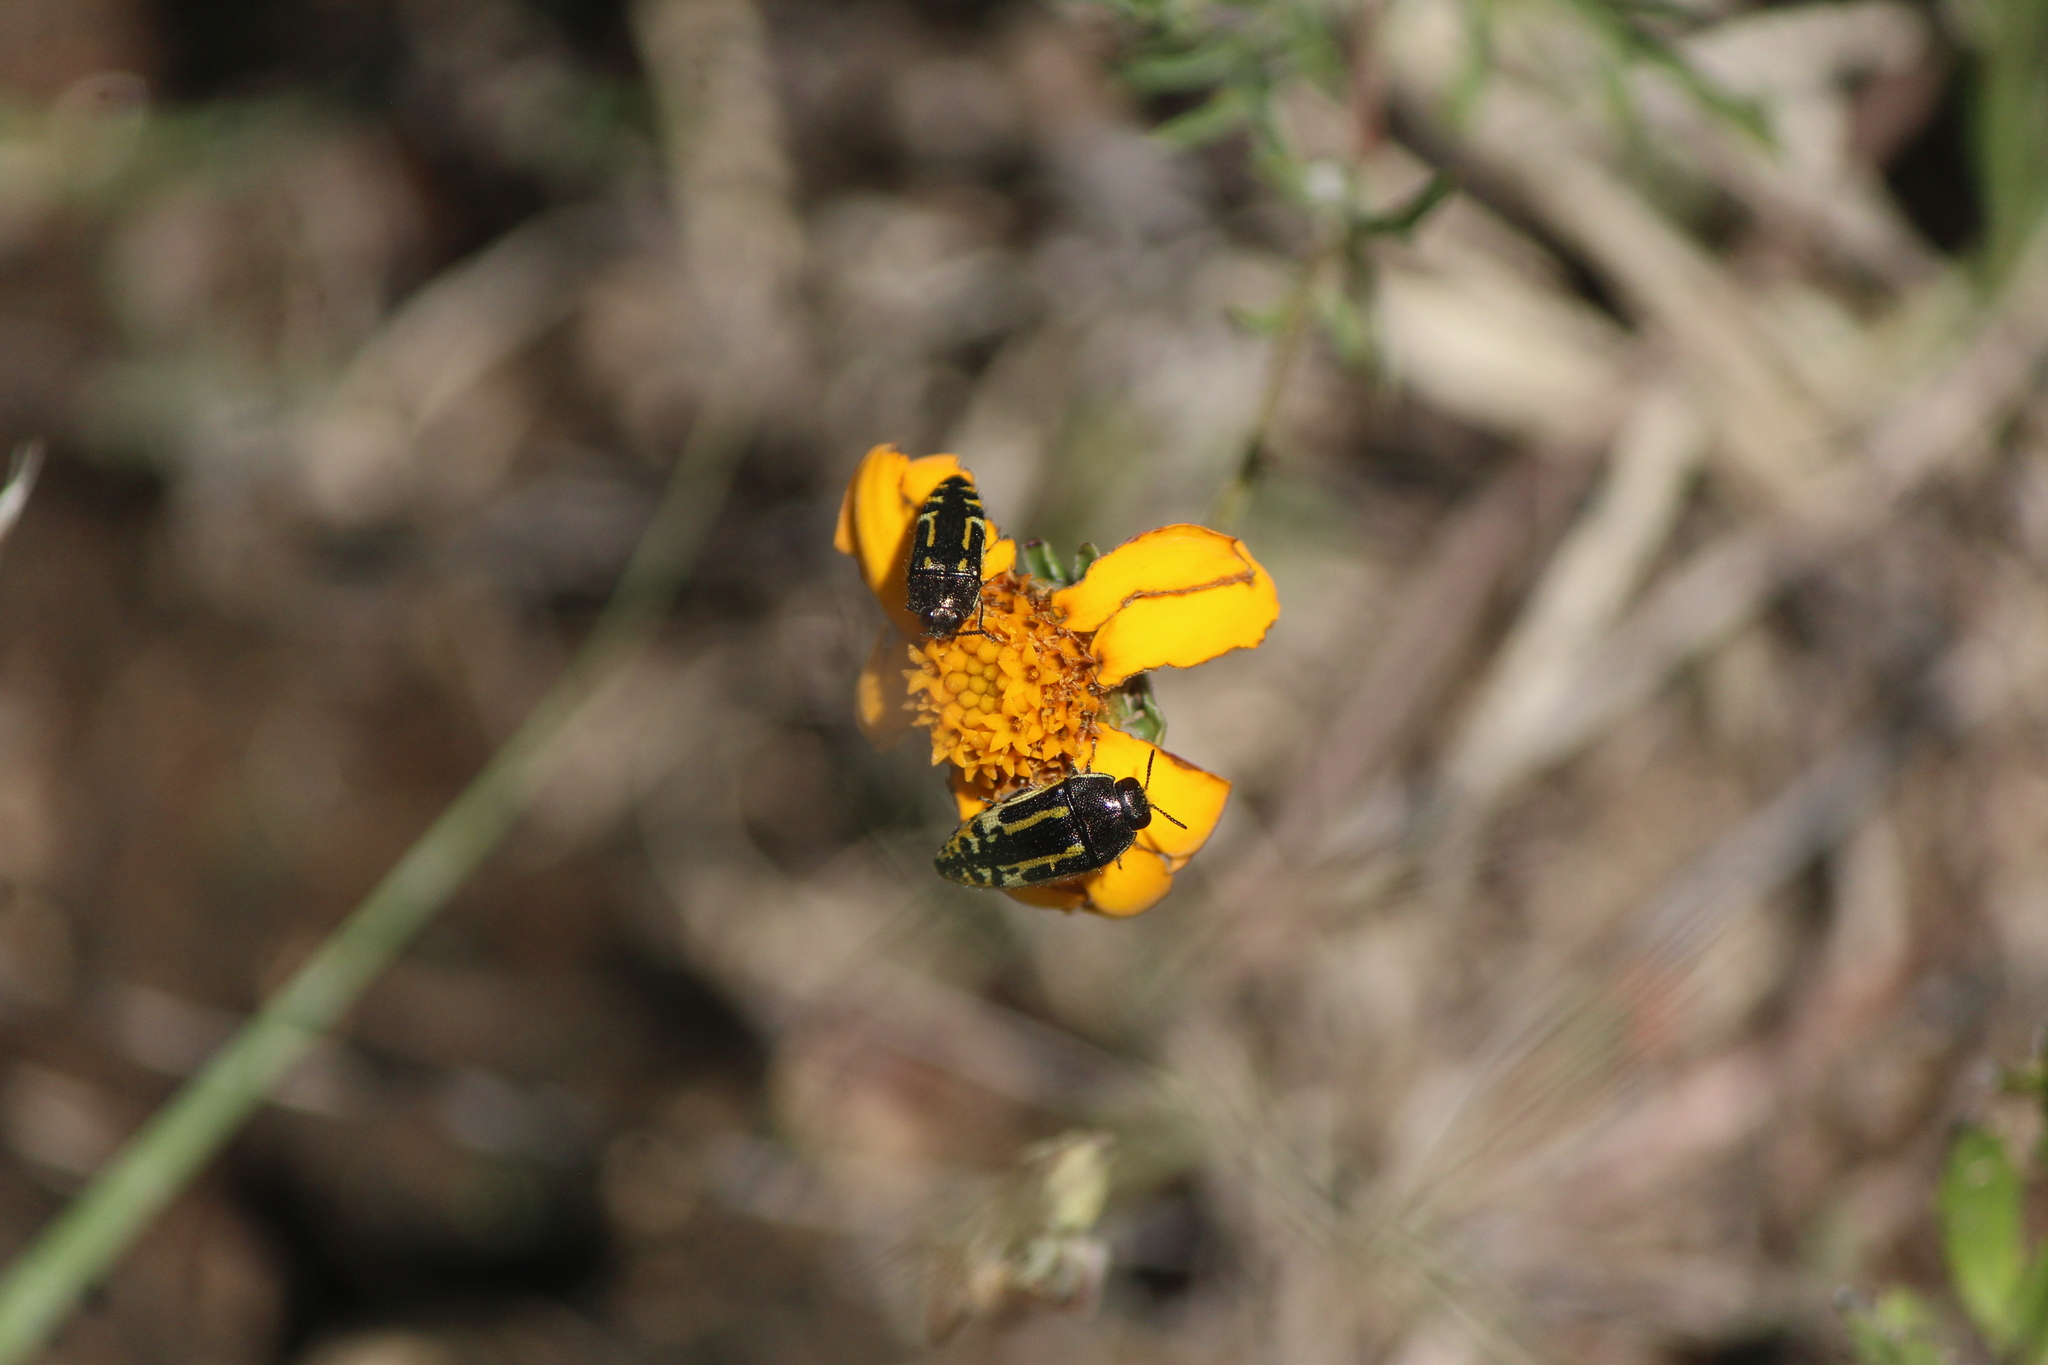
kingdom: Animalia
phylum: Arthropoda
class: Insecta
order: Coleoptera
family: Buprestidae
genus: Acmaeodera
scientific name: Acmaeodera scalaris
